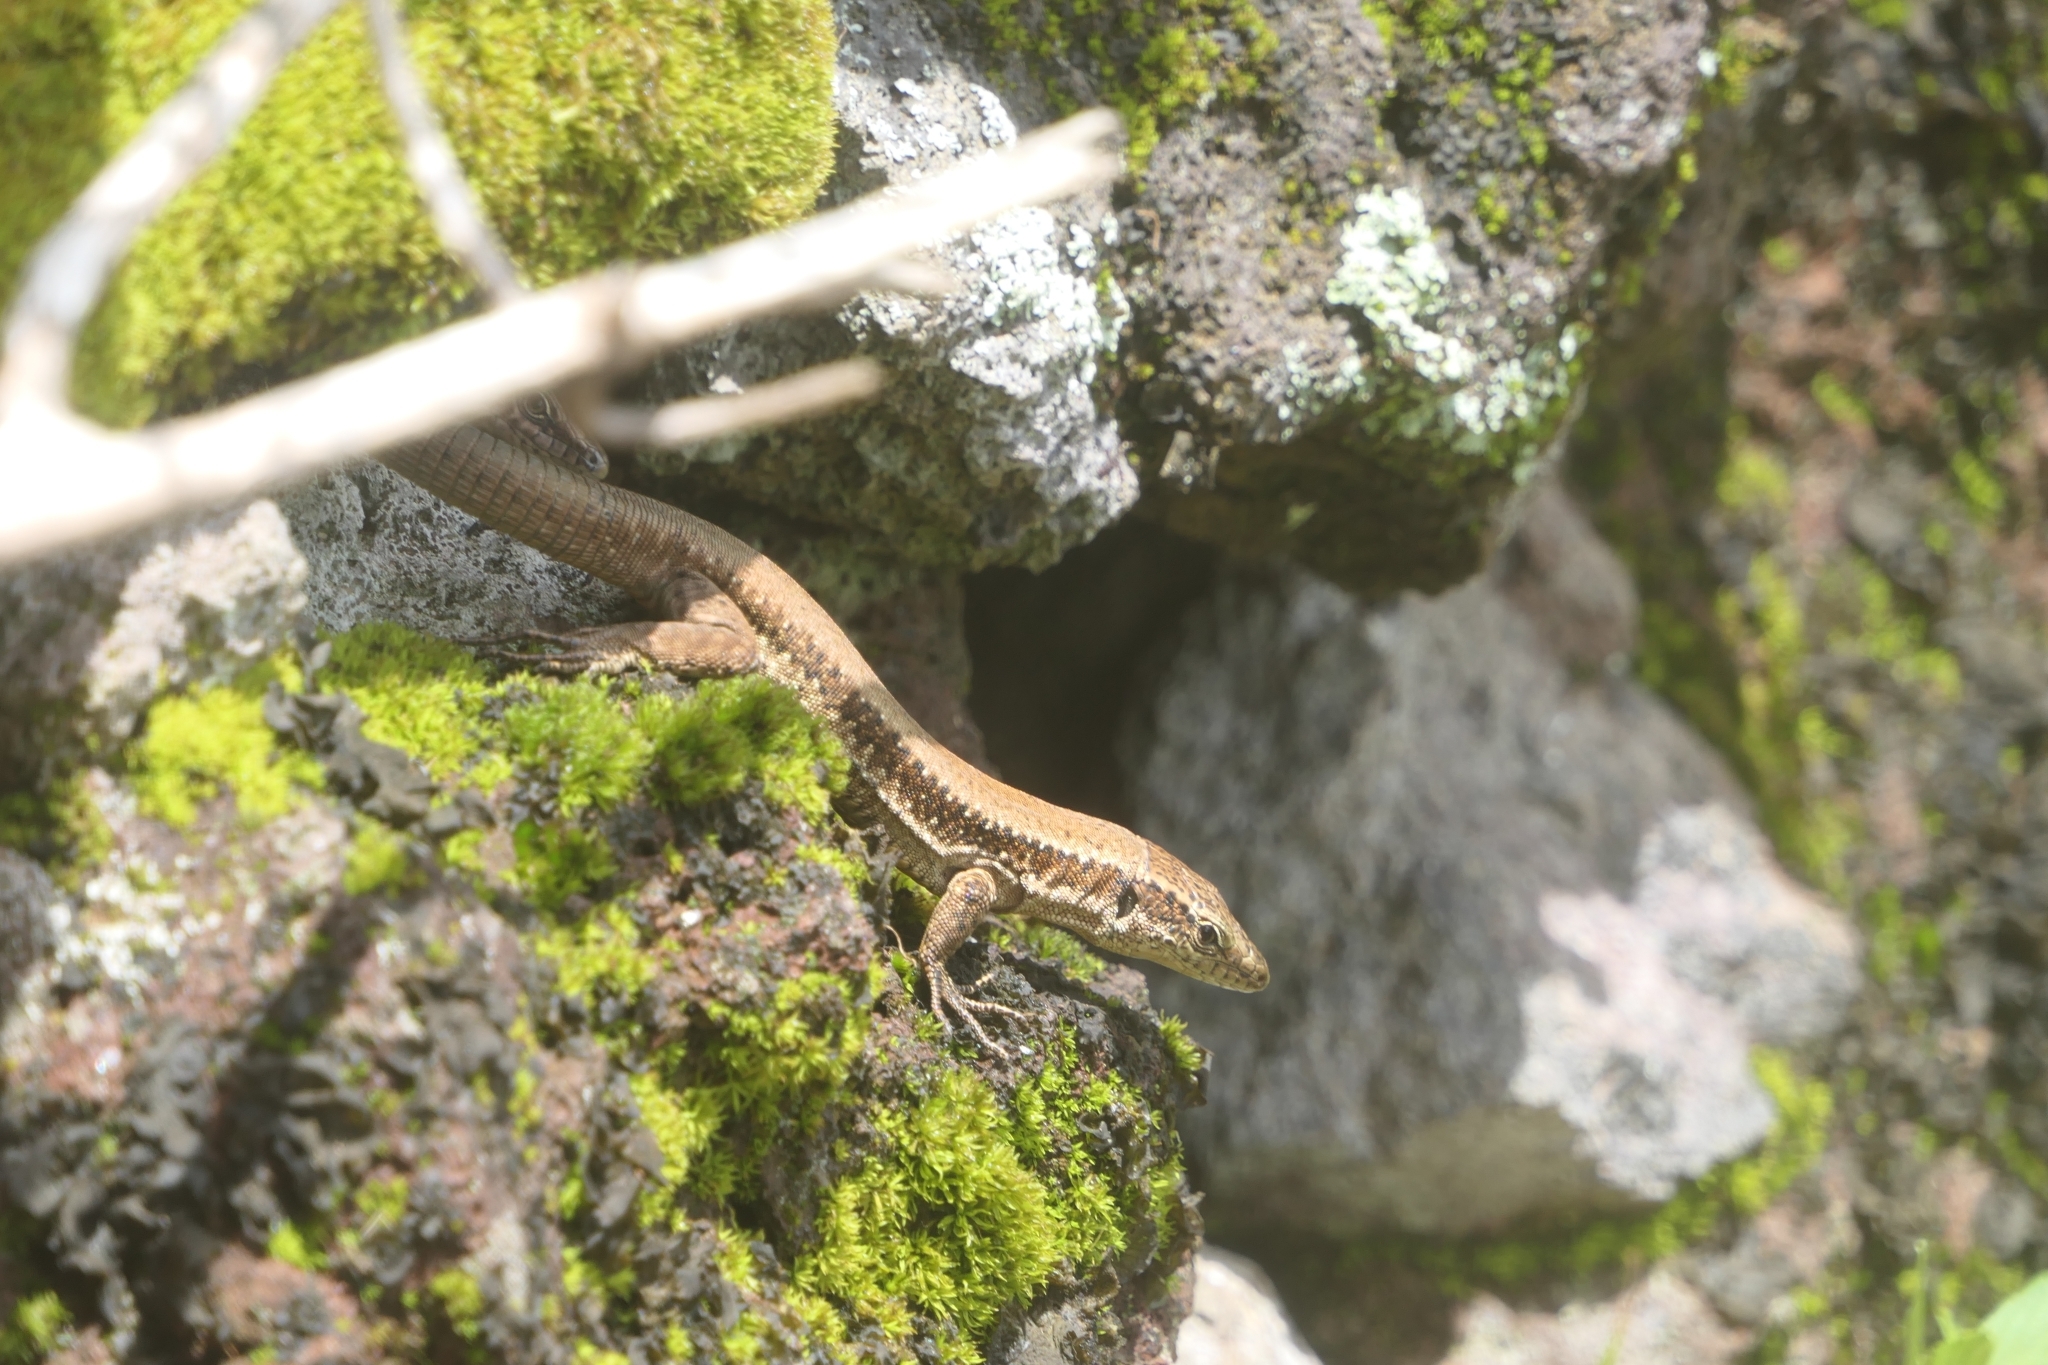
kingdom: Animalia
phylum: Chordata
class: Squamata
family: Lacertidae
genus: Teira
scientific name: Teira dugesii
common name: Madeira lizard
